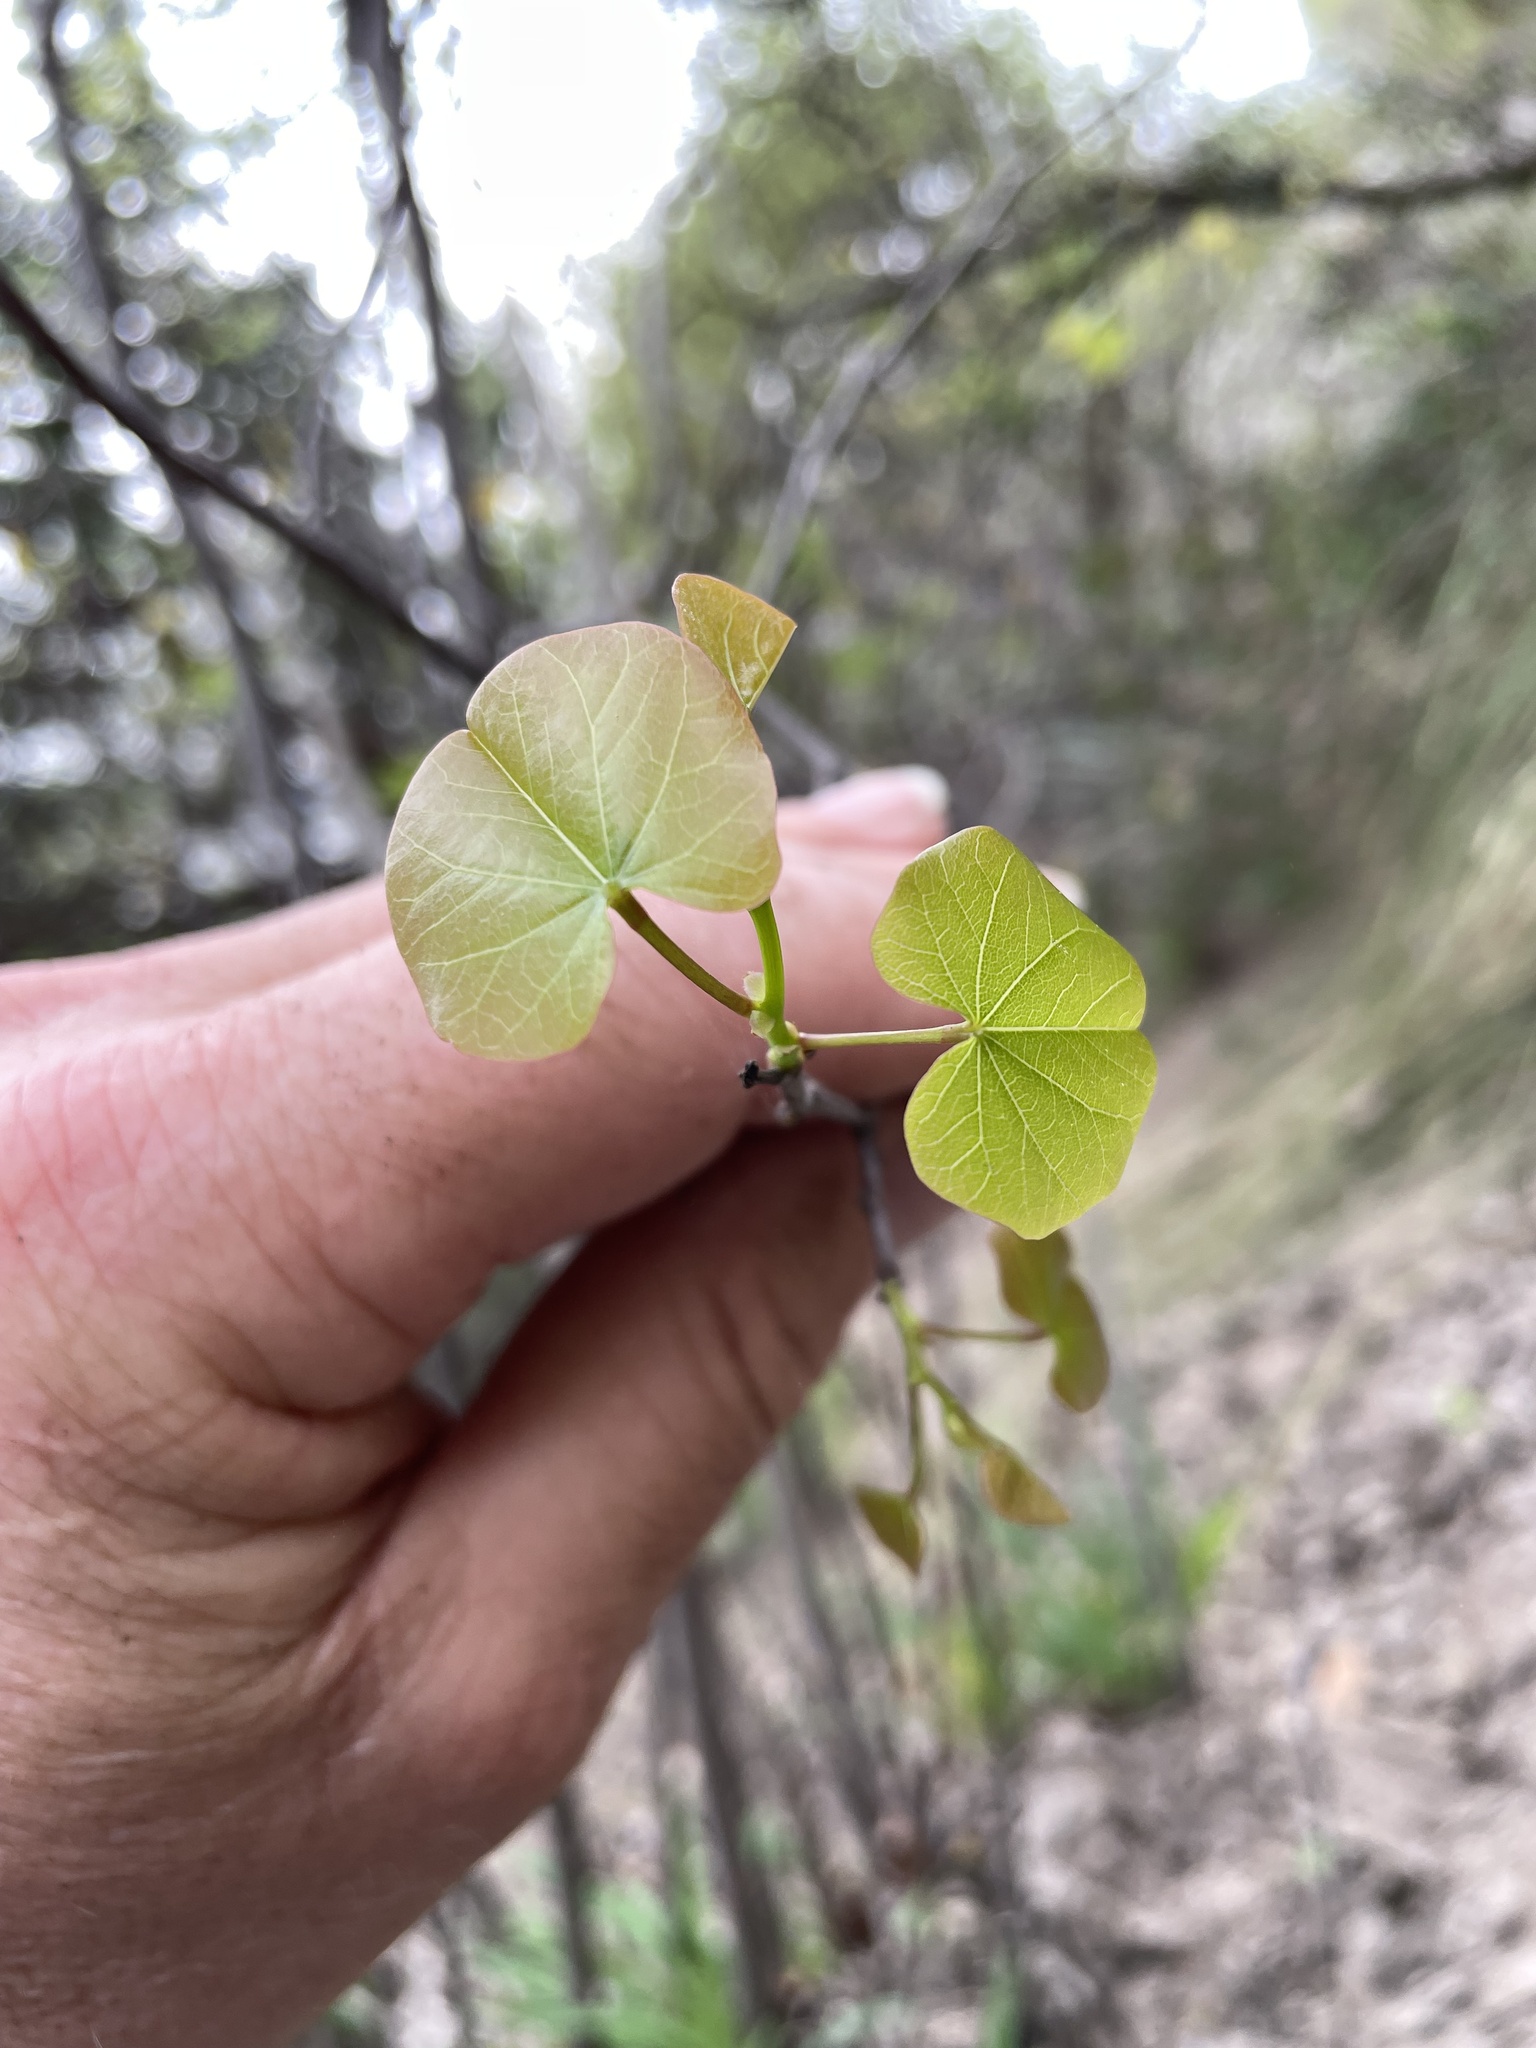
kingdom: Plantae
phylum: Tracheophyta
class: Magnoliopsida
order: Fabales
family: Fabaceae
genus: Cercis
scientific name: Cercis canadensis
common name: Eastern redbud
